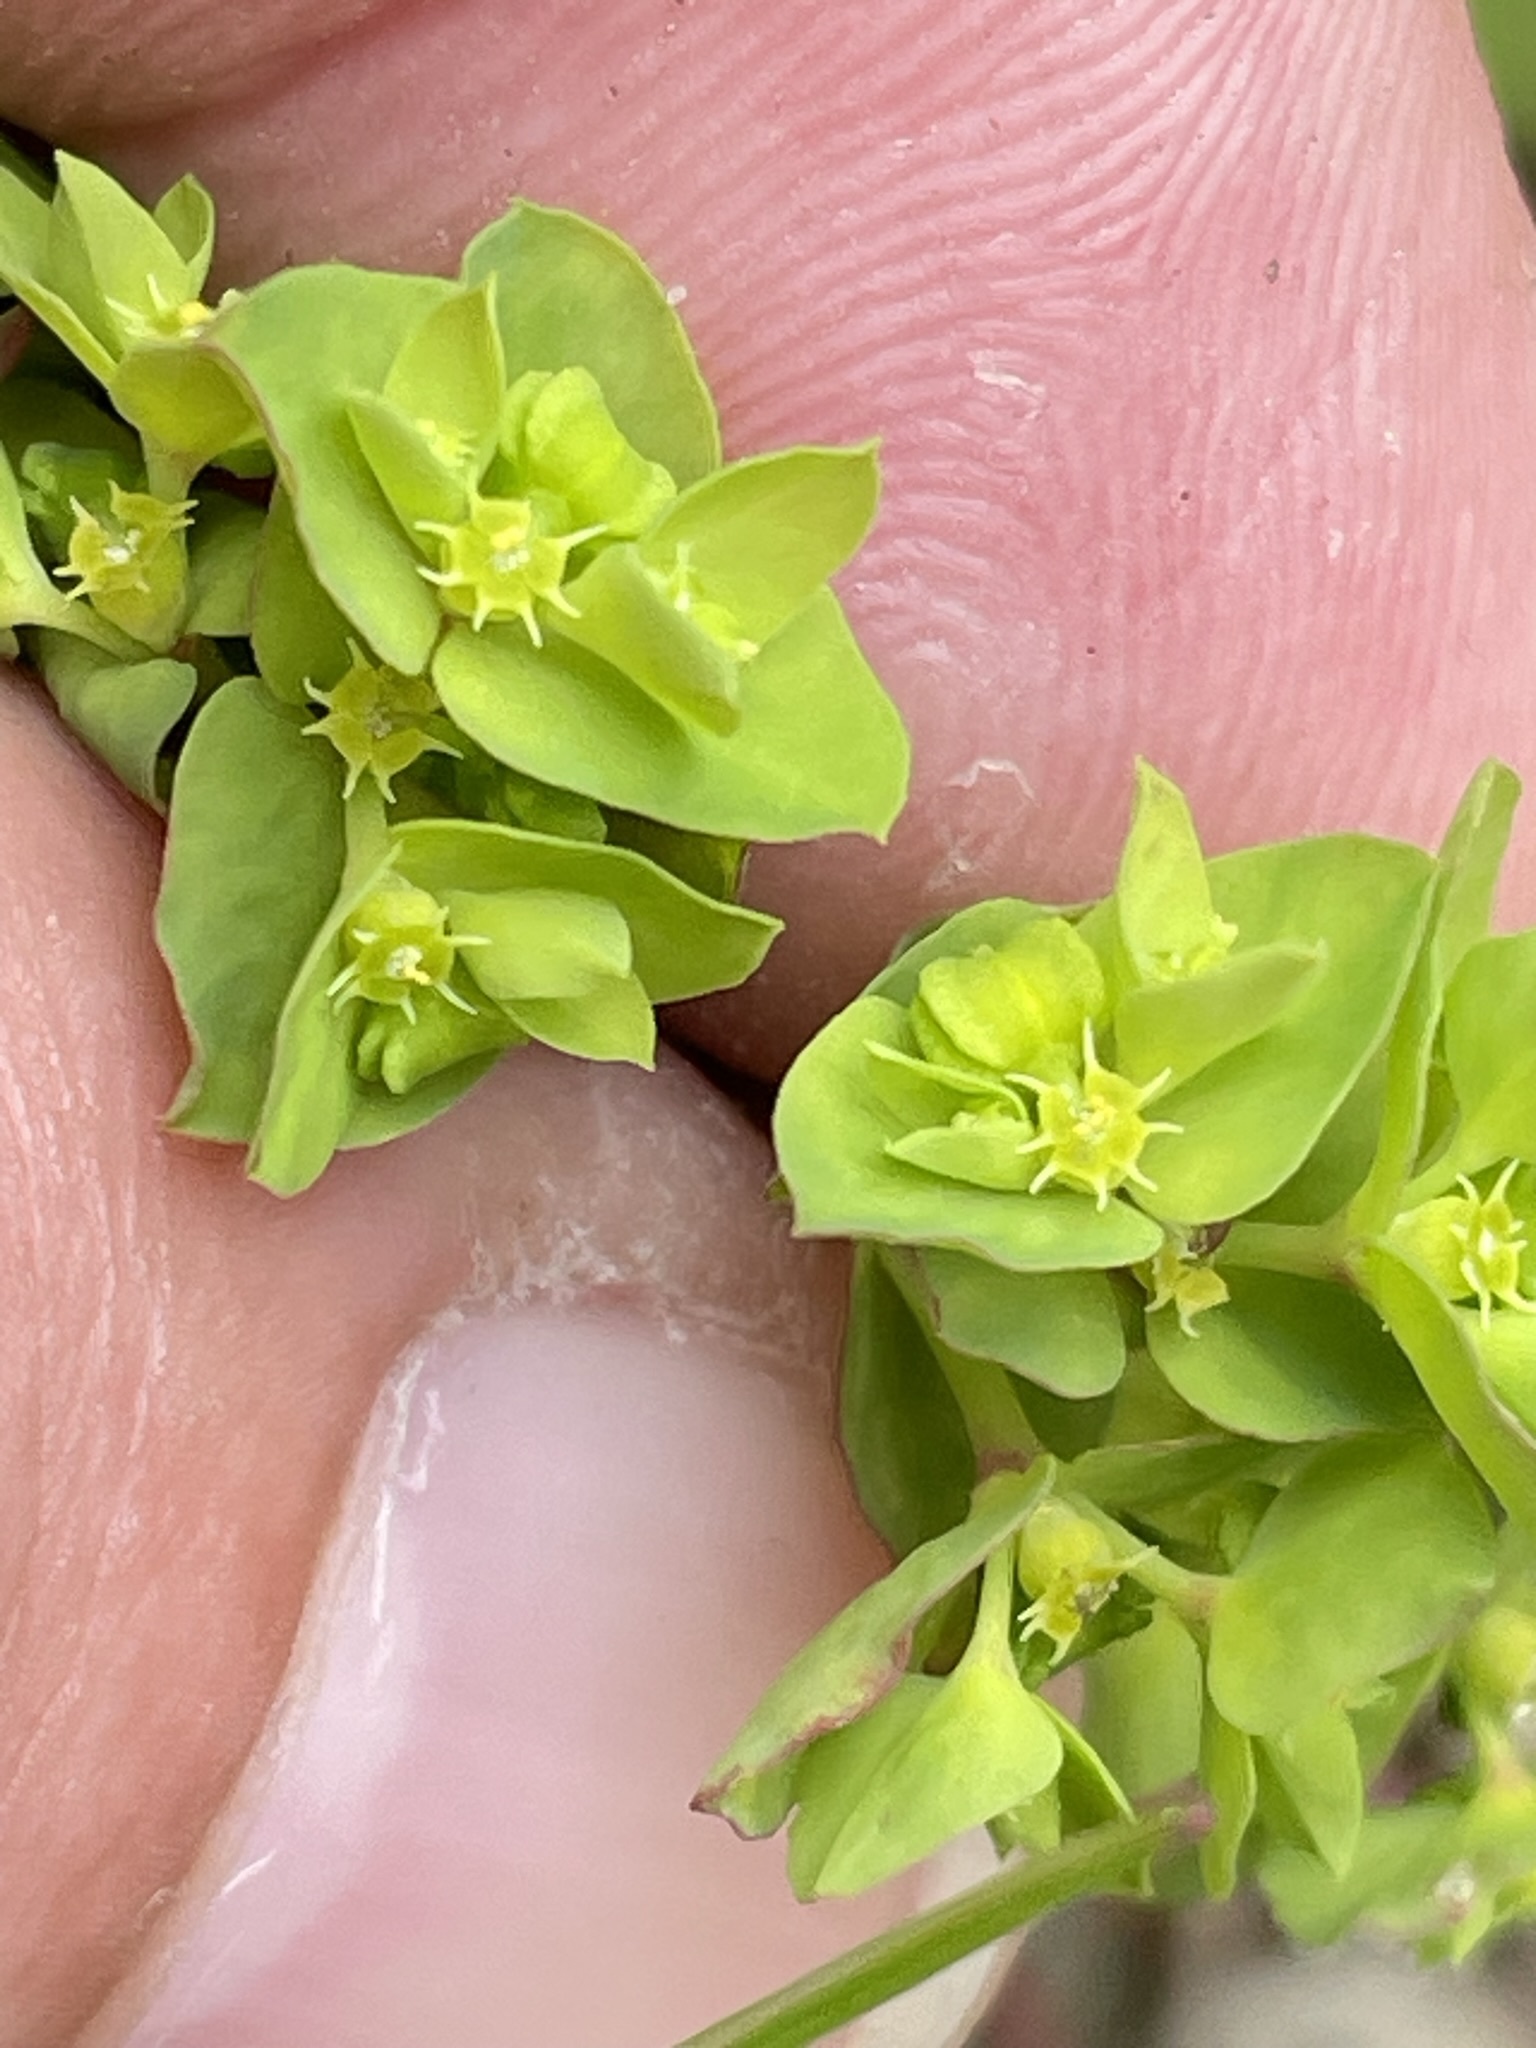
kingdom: Plantae
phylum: Tracheophyta
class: Magnoliopsida
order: Malpighiales
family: Euphorbiaceae
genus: Euphorbia
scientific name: Euphorbia peplus
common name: Petty spurge
